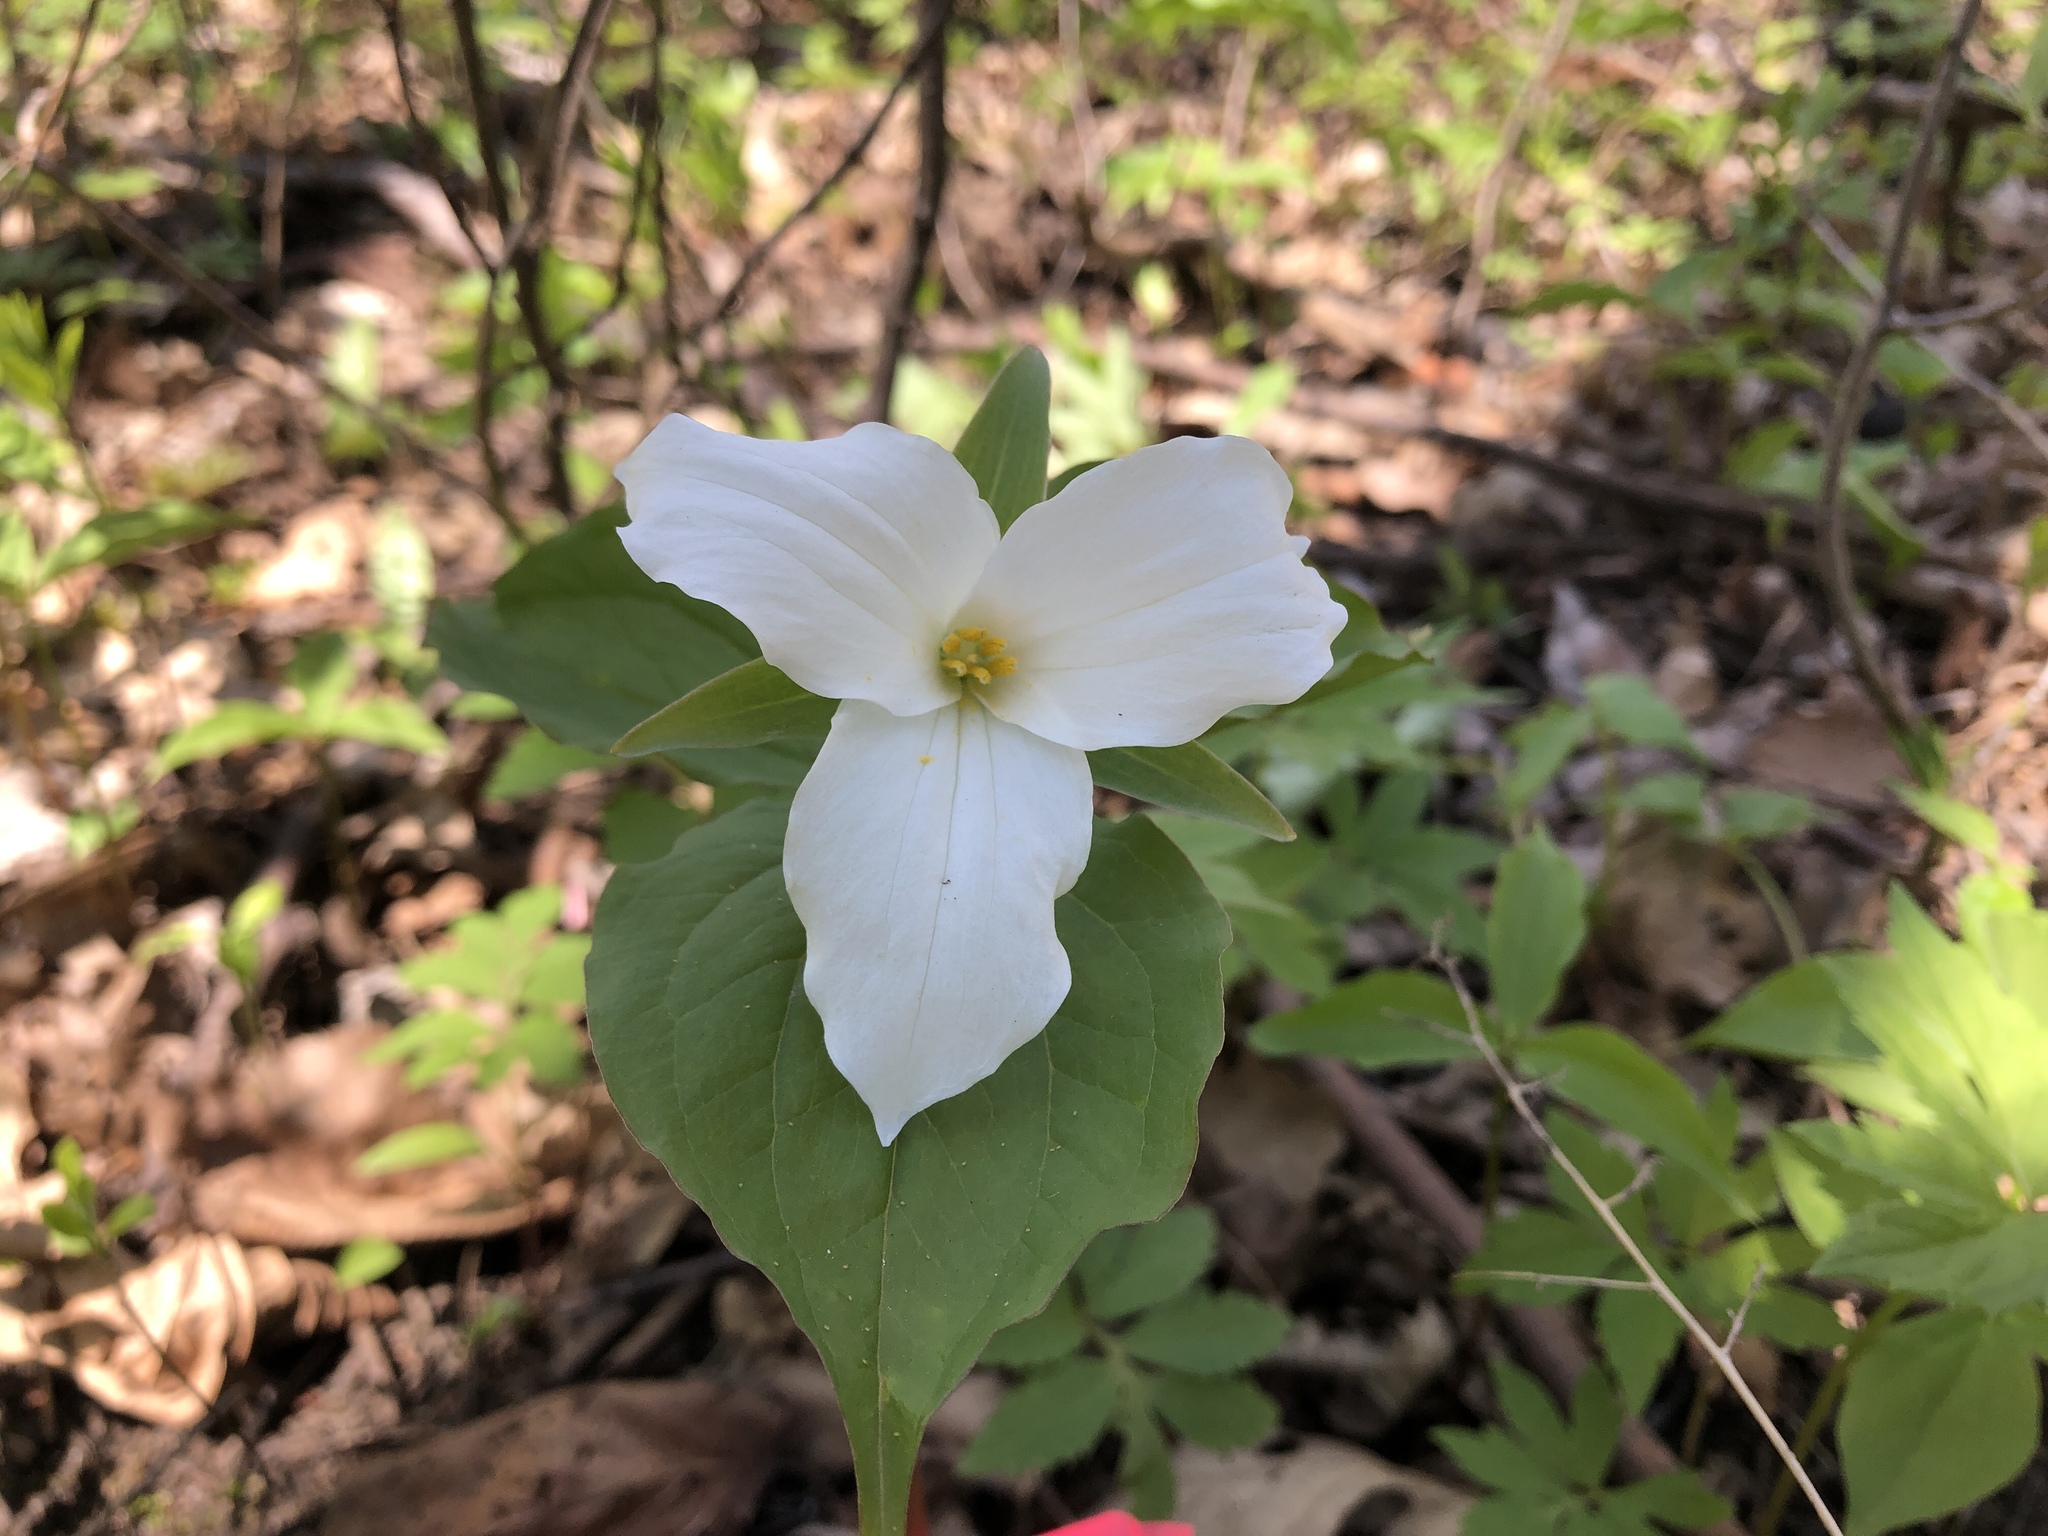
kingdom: Plantae
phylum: Tracheophyta
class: Liliopsida
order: Liliales
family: Melanthiaceae
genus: Trillium
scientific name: Trillium grandiflorum
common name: Great white trillium
